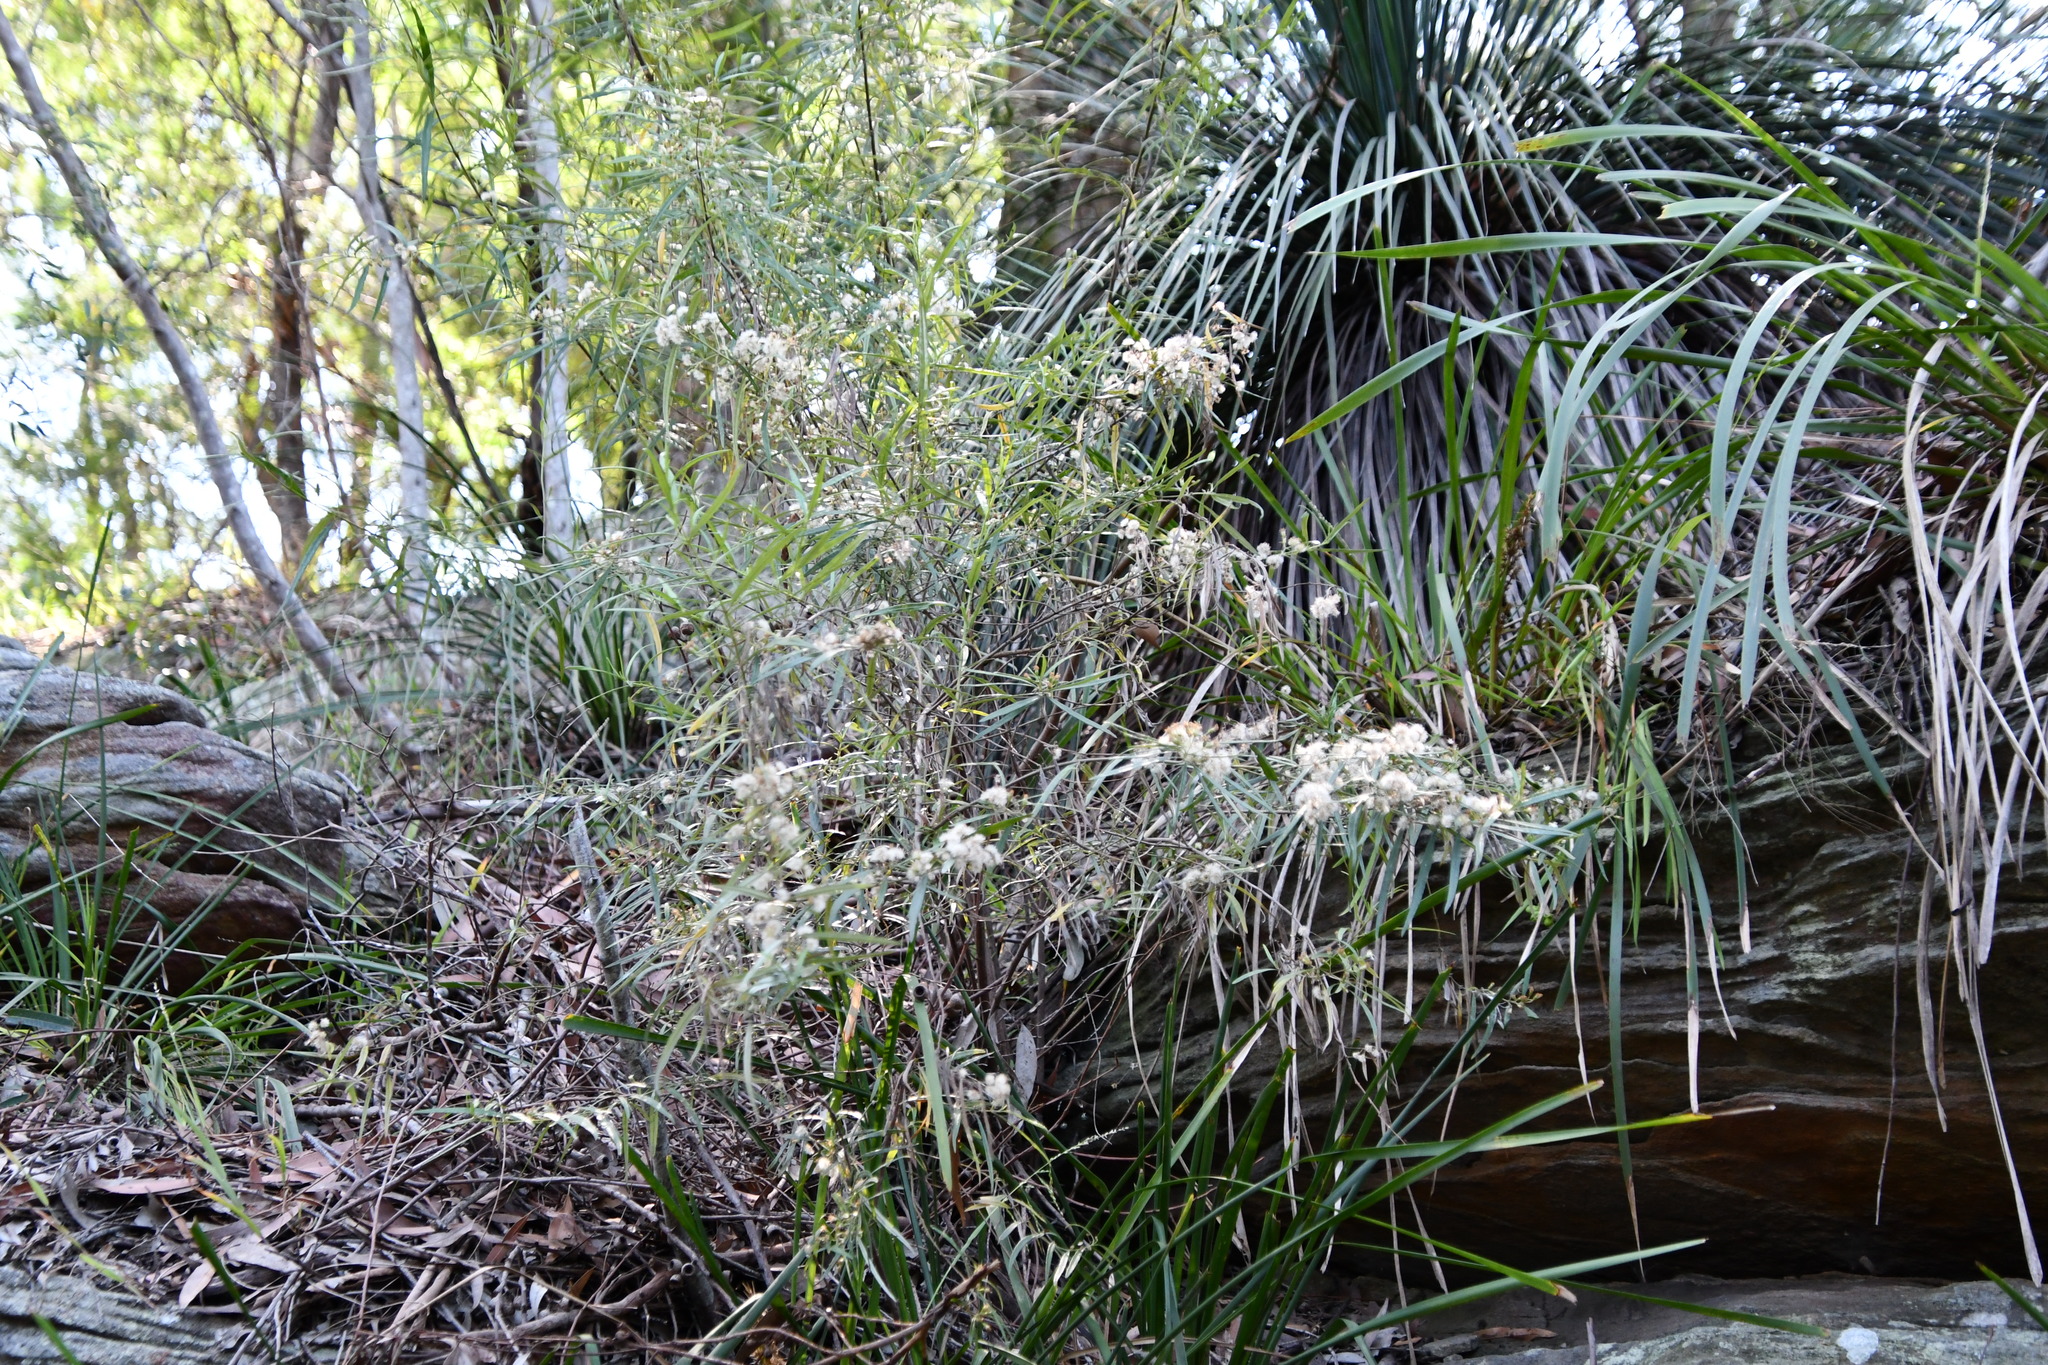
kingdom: Plantae
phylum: Tracheophyta
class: Magnoliopsida
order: Asterales
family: Asteraceae
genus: Olearia
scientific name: Olearia viscidula
